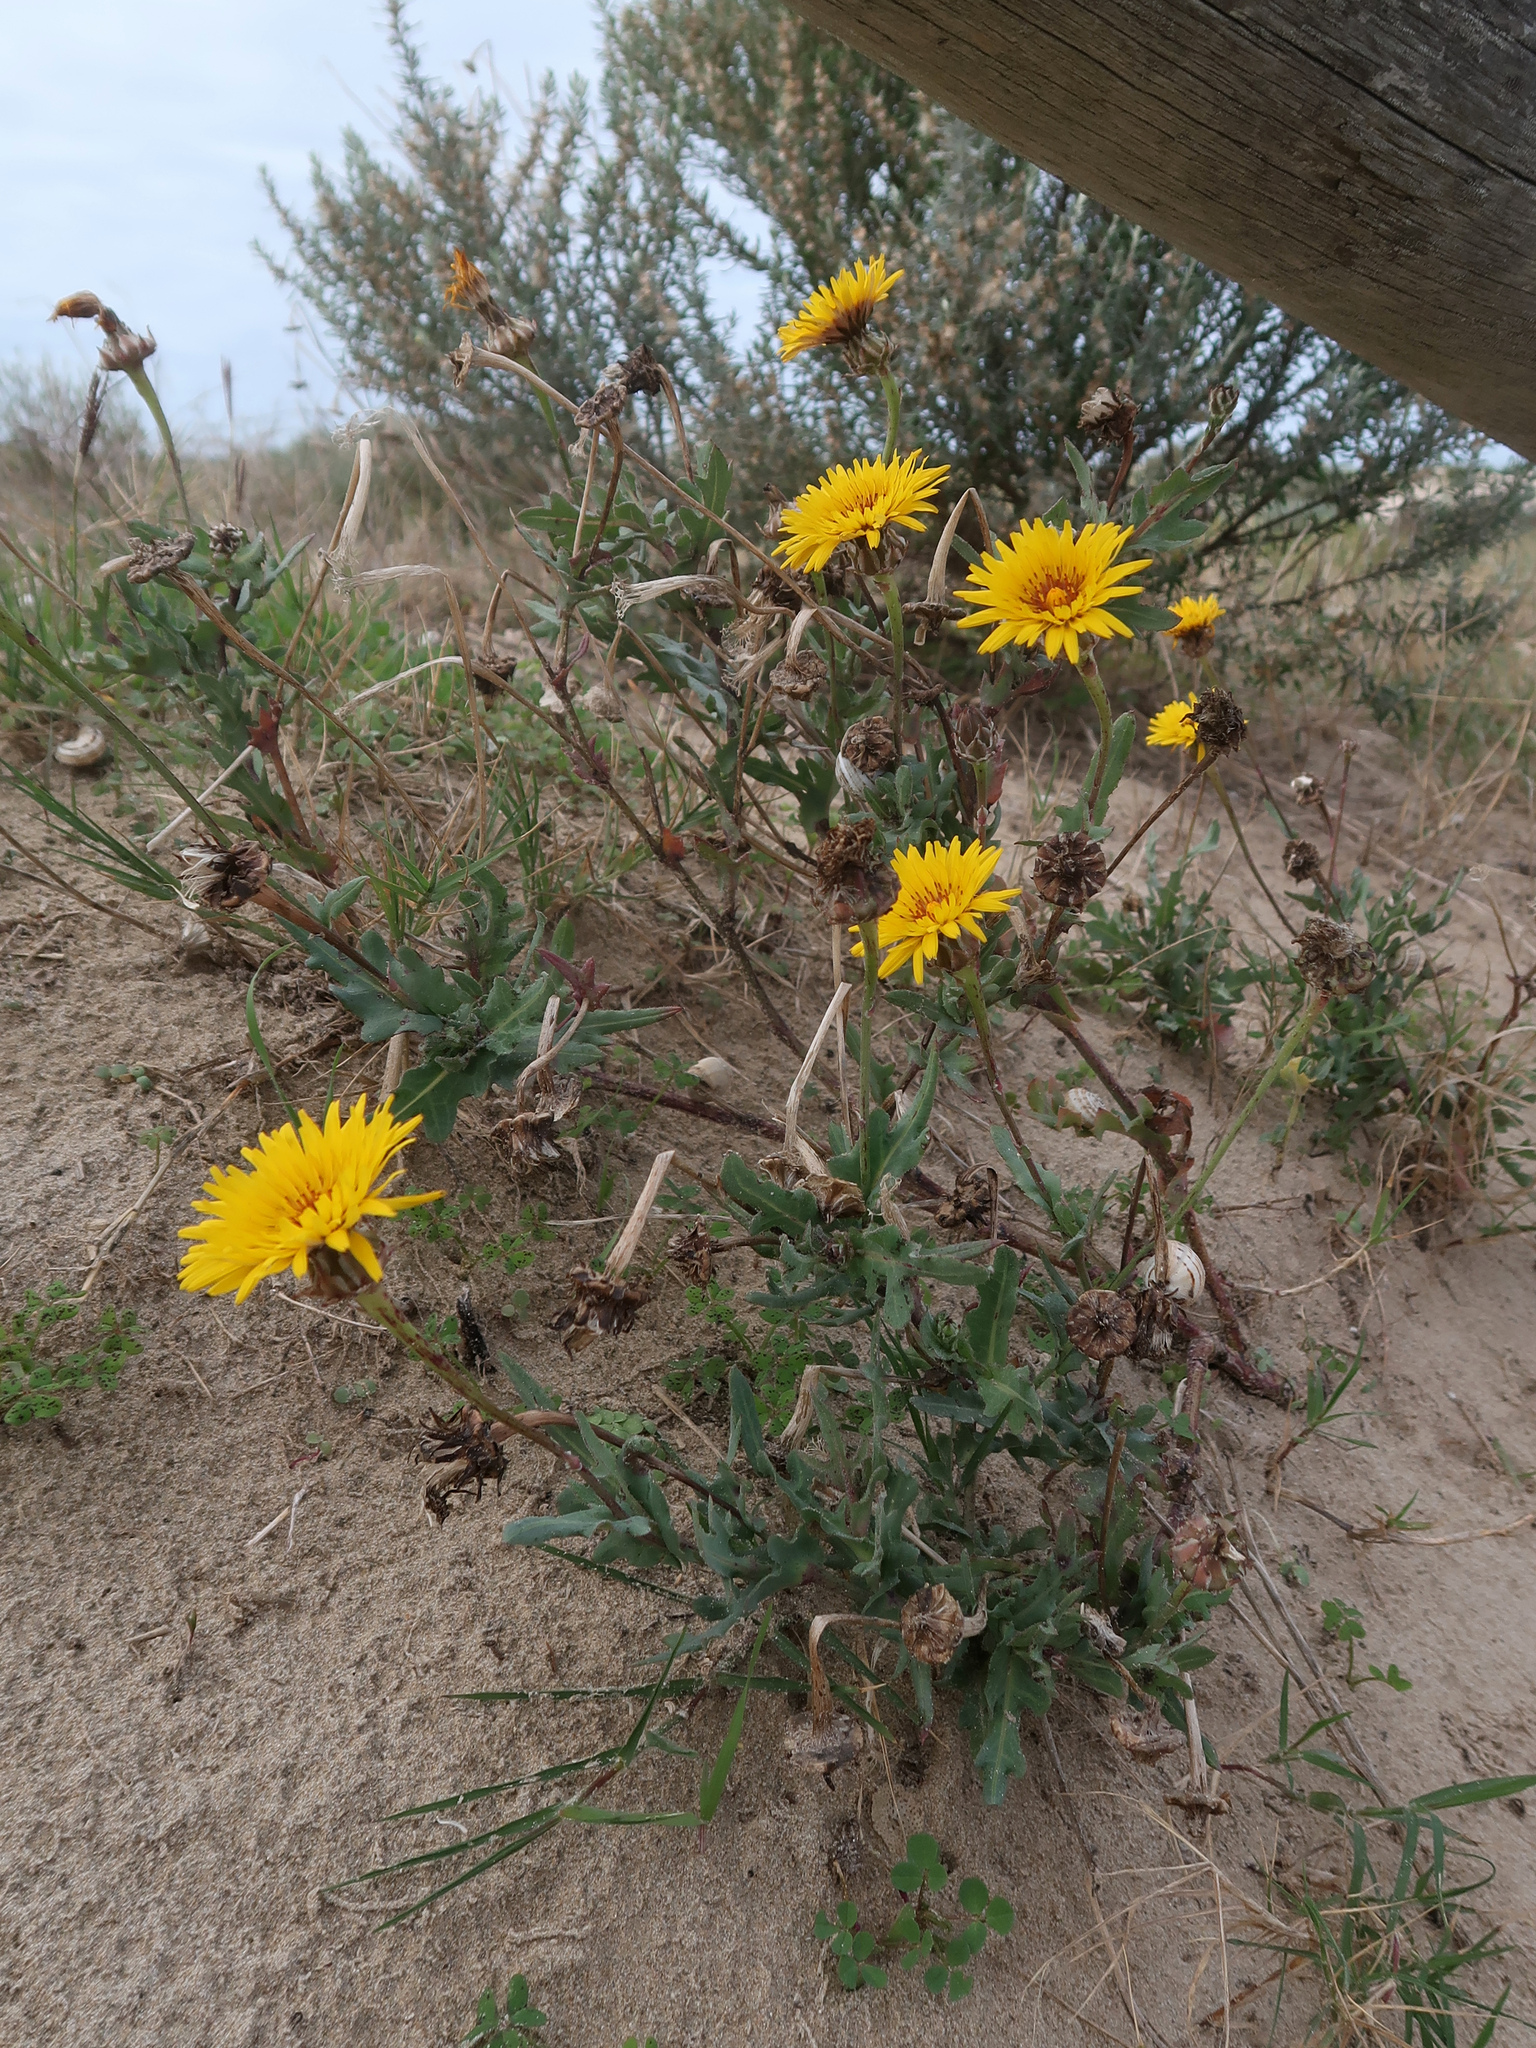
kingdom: Plantae
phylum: Tracheophyta
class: Magnoliopsida
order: Asterales
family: Asteraceae
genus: Reichardia
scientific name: Reichardia tingitana
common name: Reichardia
